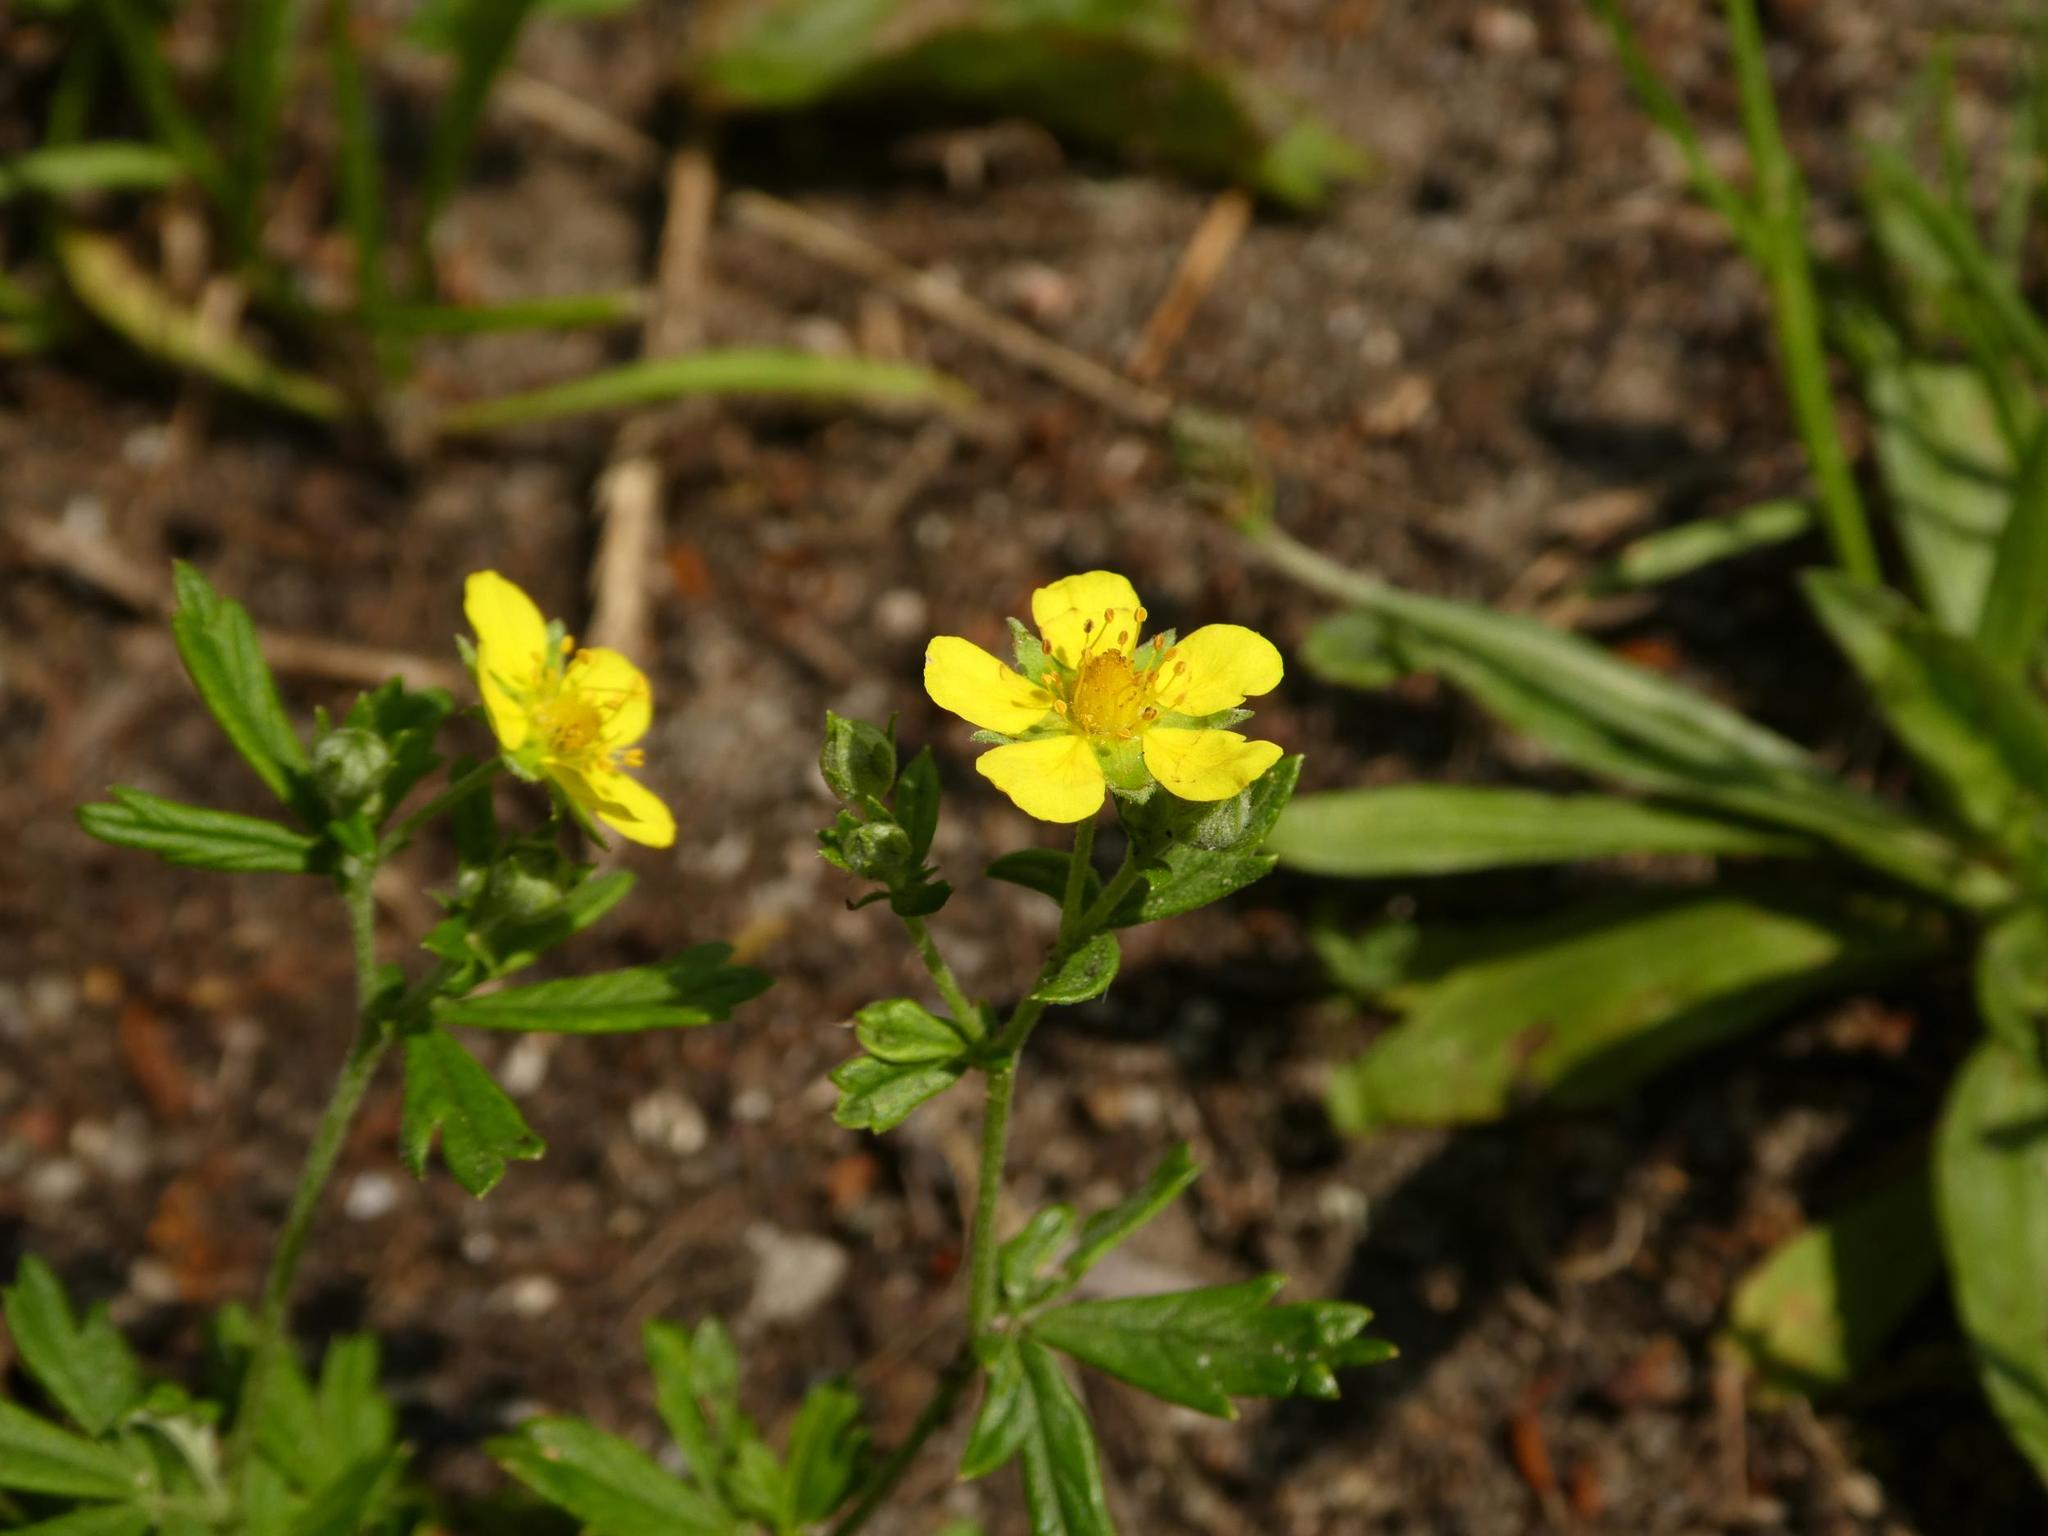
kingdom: Plantae
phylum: Tracheophyta
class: Magnoliopsida
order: Rosales
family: Rosaceae
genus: Potentilla
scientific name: Potentilla argentea
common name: Hoary cinquefoil
